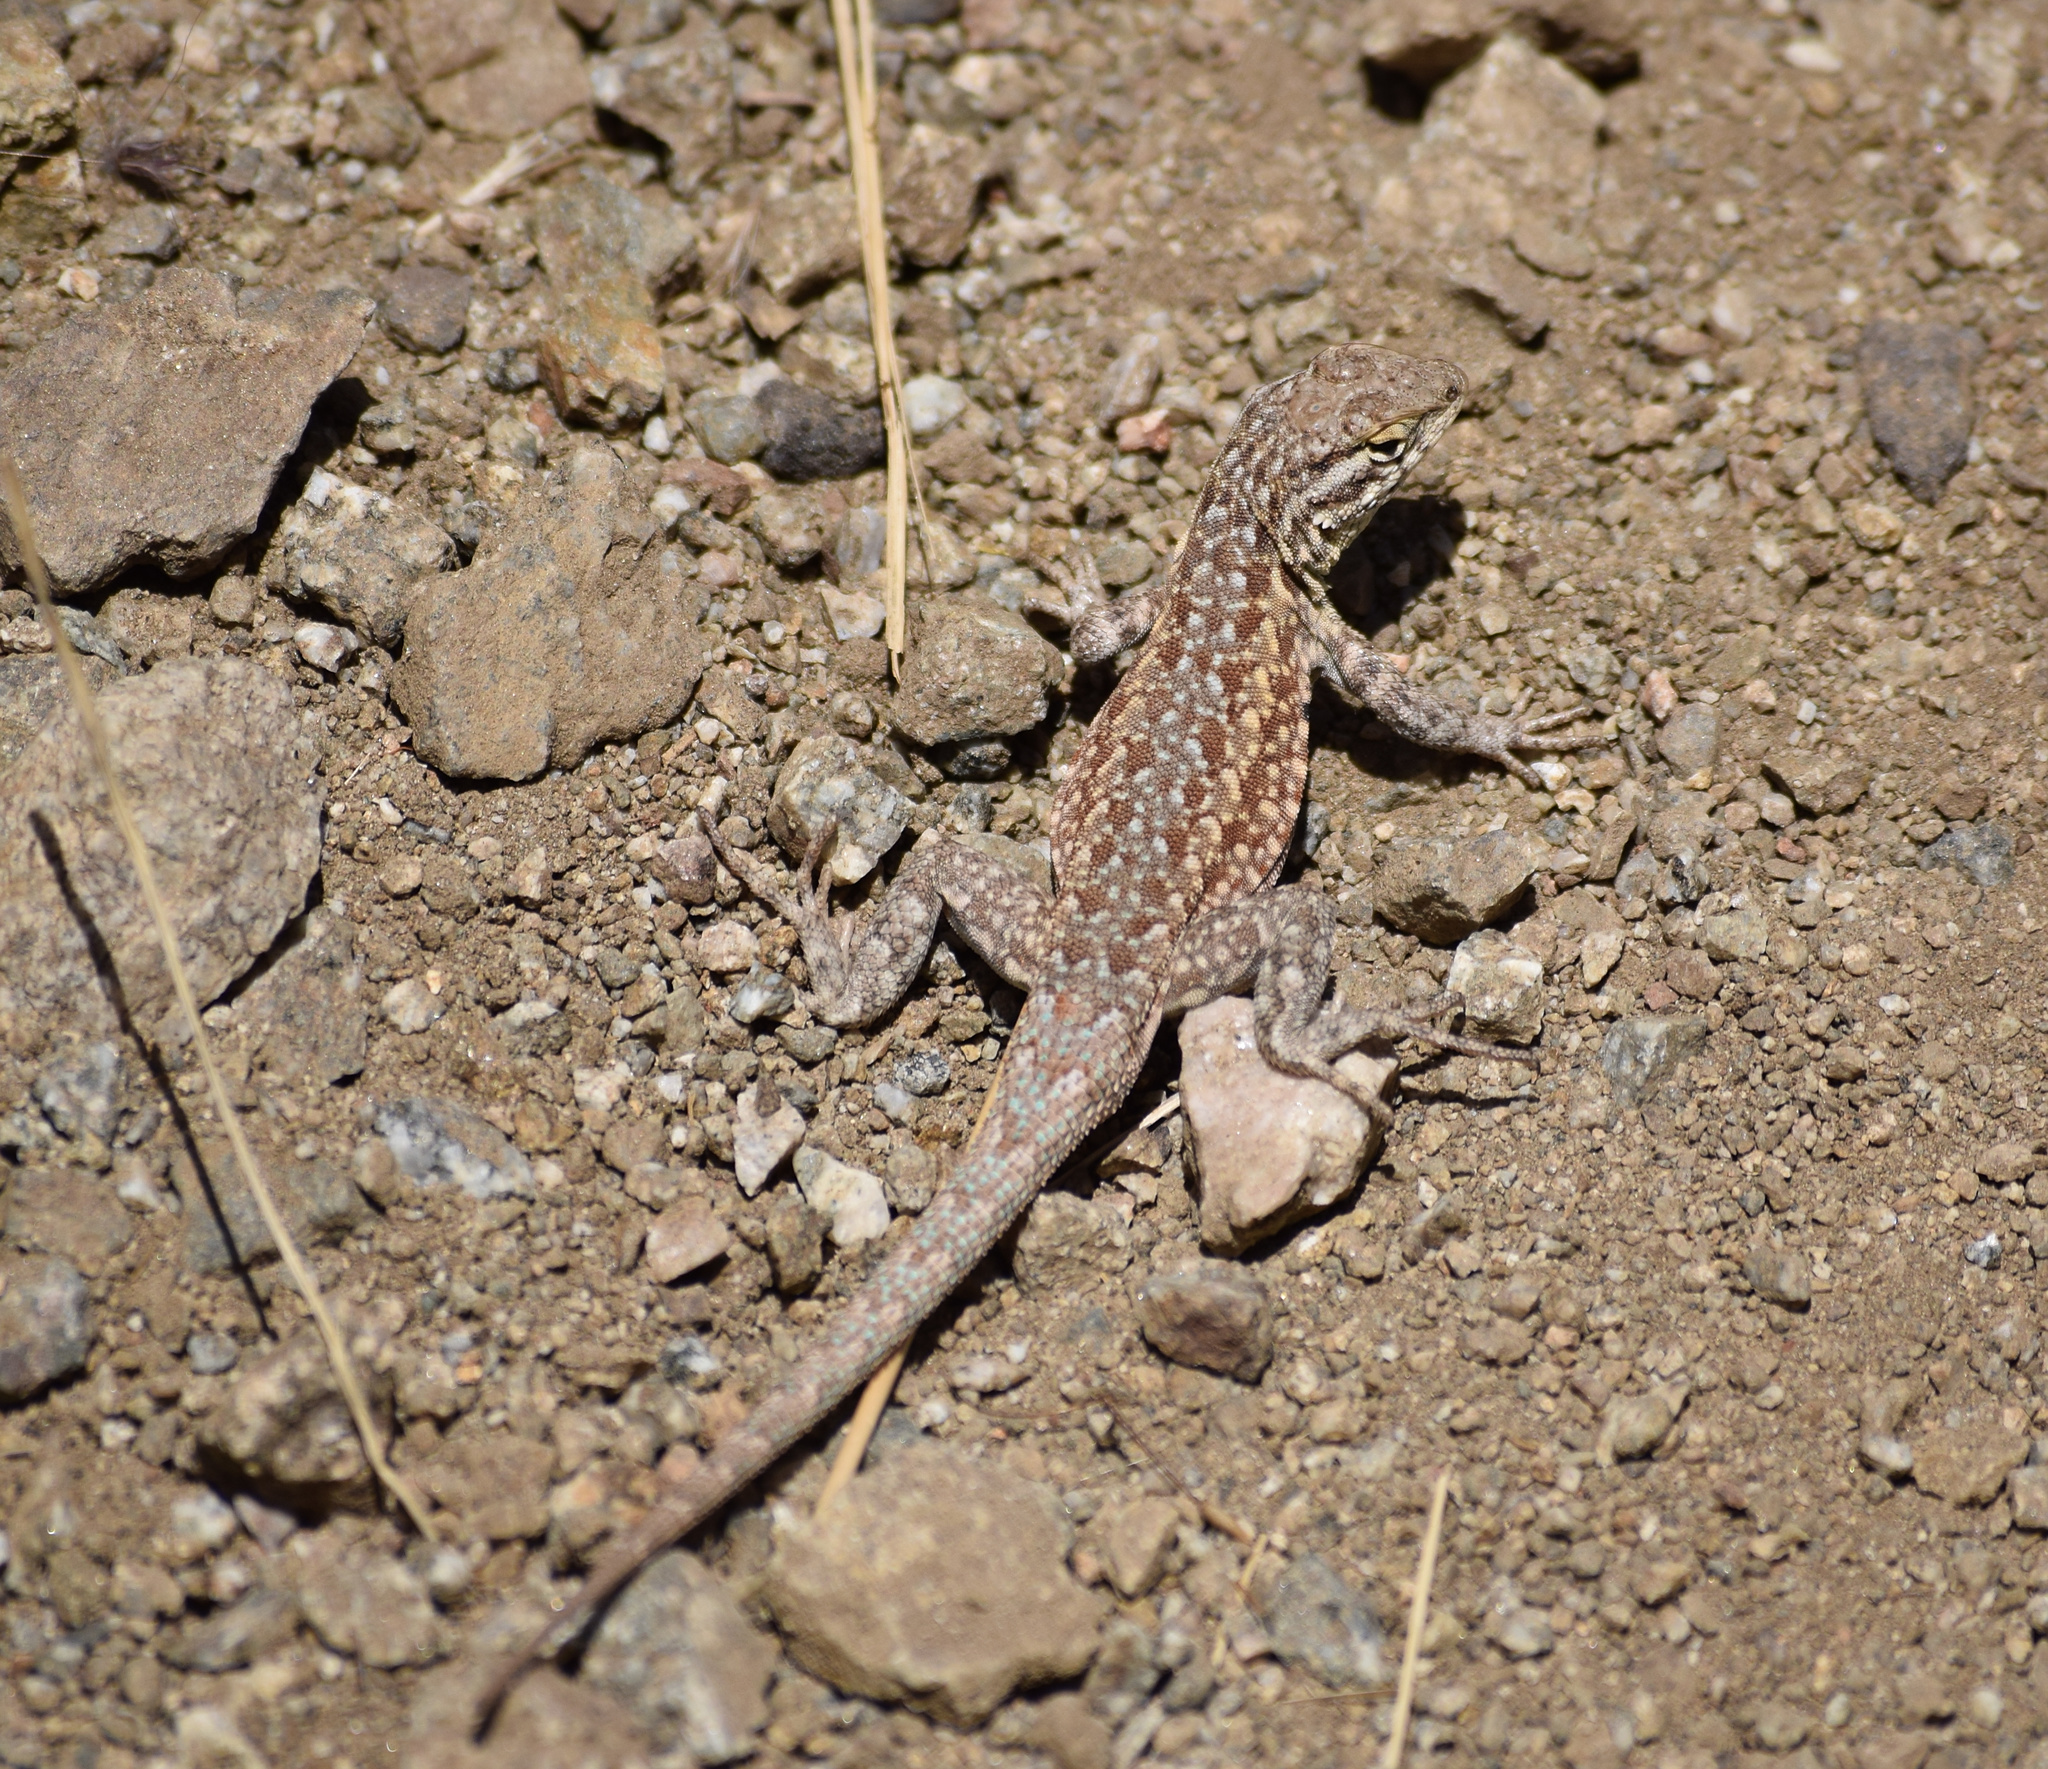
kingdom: Animalia
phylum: Chordata
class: Squamata
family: Phrynosomatidae
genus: Uta
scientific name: Uta stansburiana
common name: Side-blotched lizard
